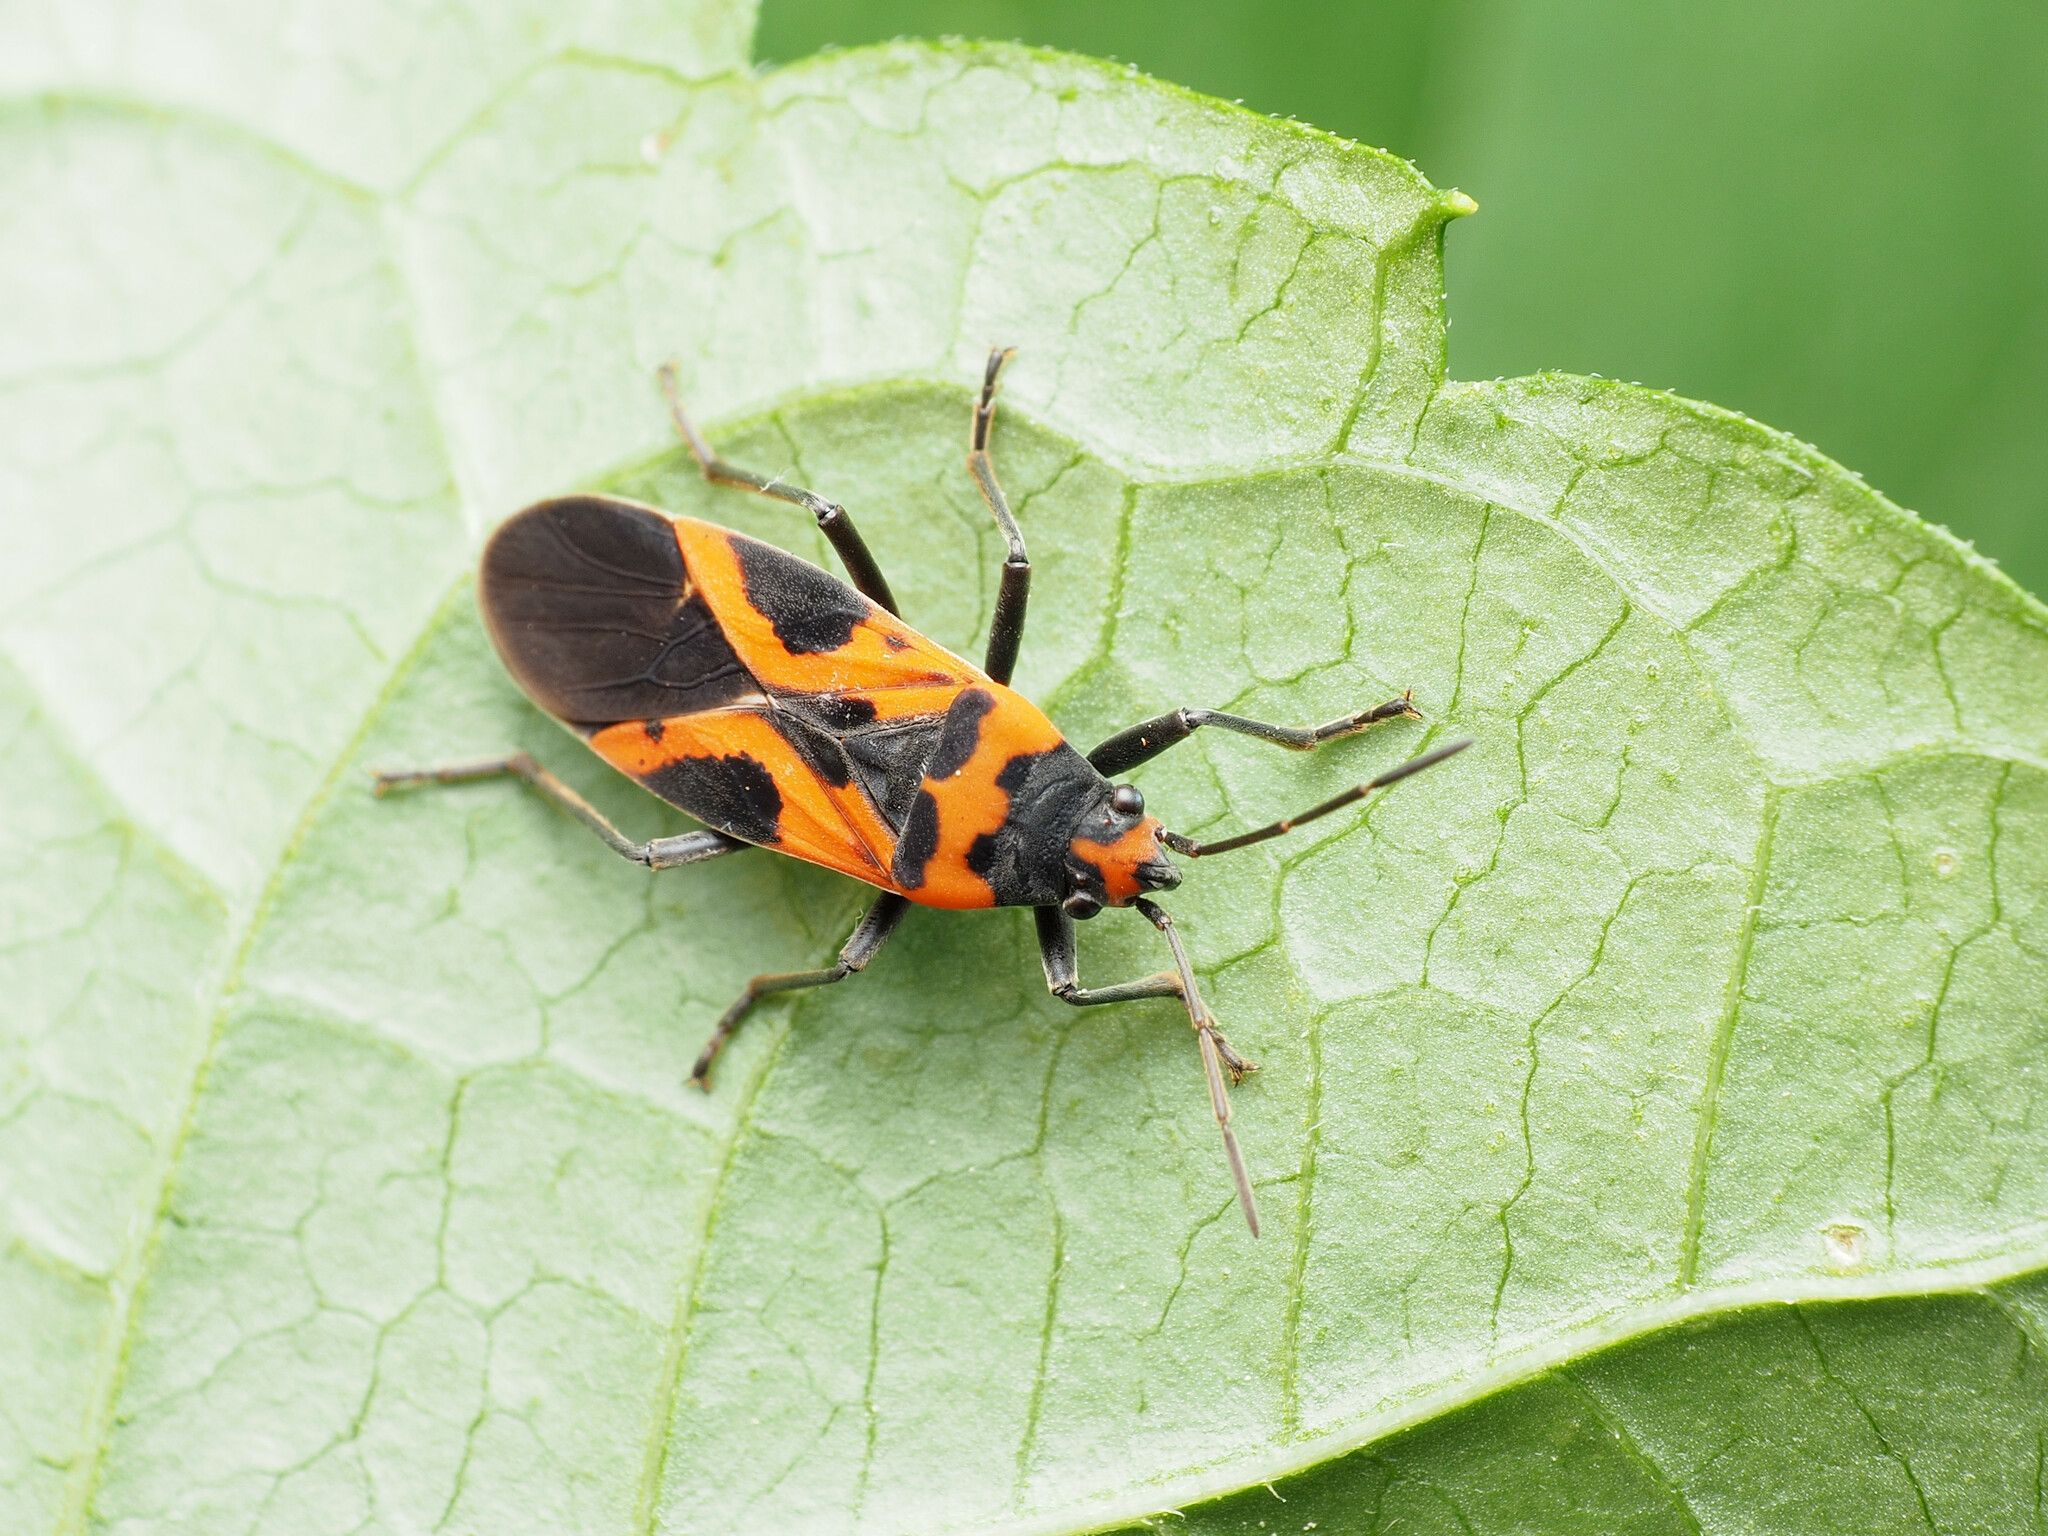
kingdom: Animalia
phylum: Arthropoda
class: Insecta
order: Hemiptera
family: Lygaeidae
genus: Lygaeus
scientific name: Lygaeus turcicus
